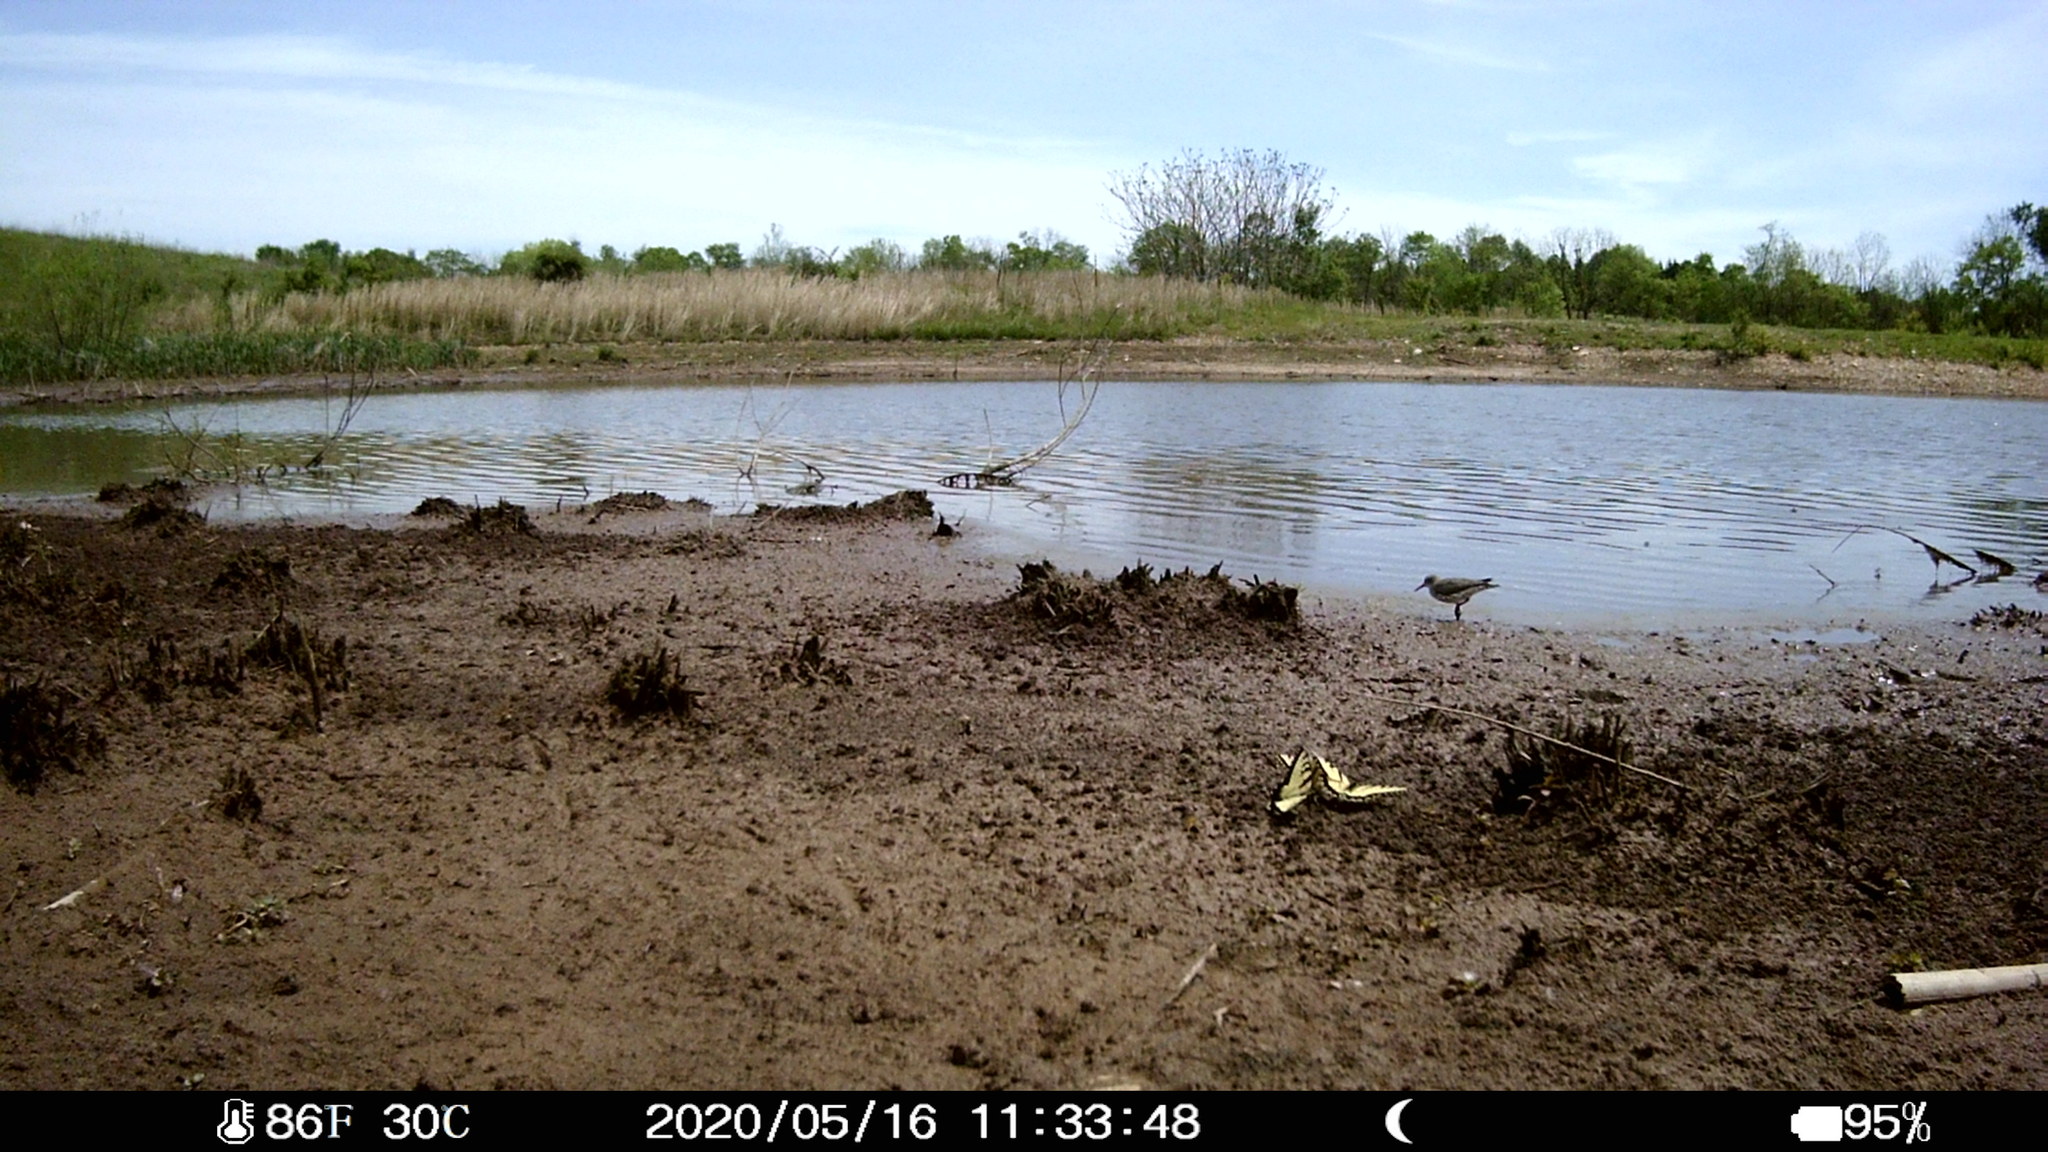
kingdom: Animalia
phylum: Arthropoda
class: Insecta
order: Lepidoptera
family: Papilionidae
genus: Papilio
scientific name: Papilio glaucus
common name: Tiger swallowtail
